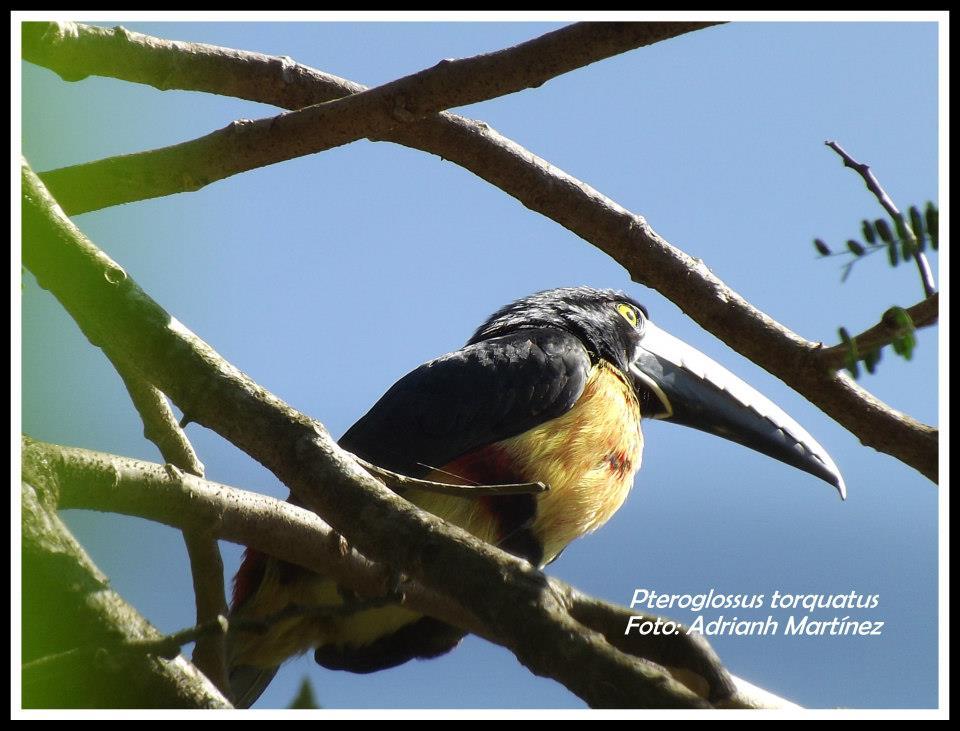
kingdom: Animalia
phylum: Chordata
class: Aves
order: Piciformes
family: Ramphastidae
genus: Pteroglossus
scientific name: Pteroglossus torquatus
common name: Collared aracari
